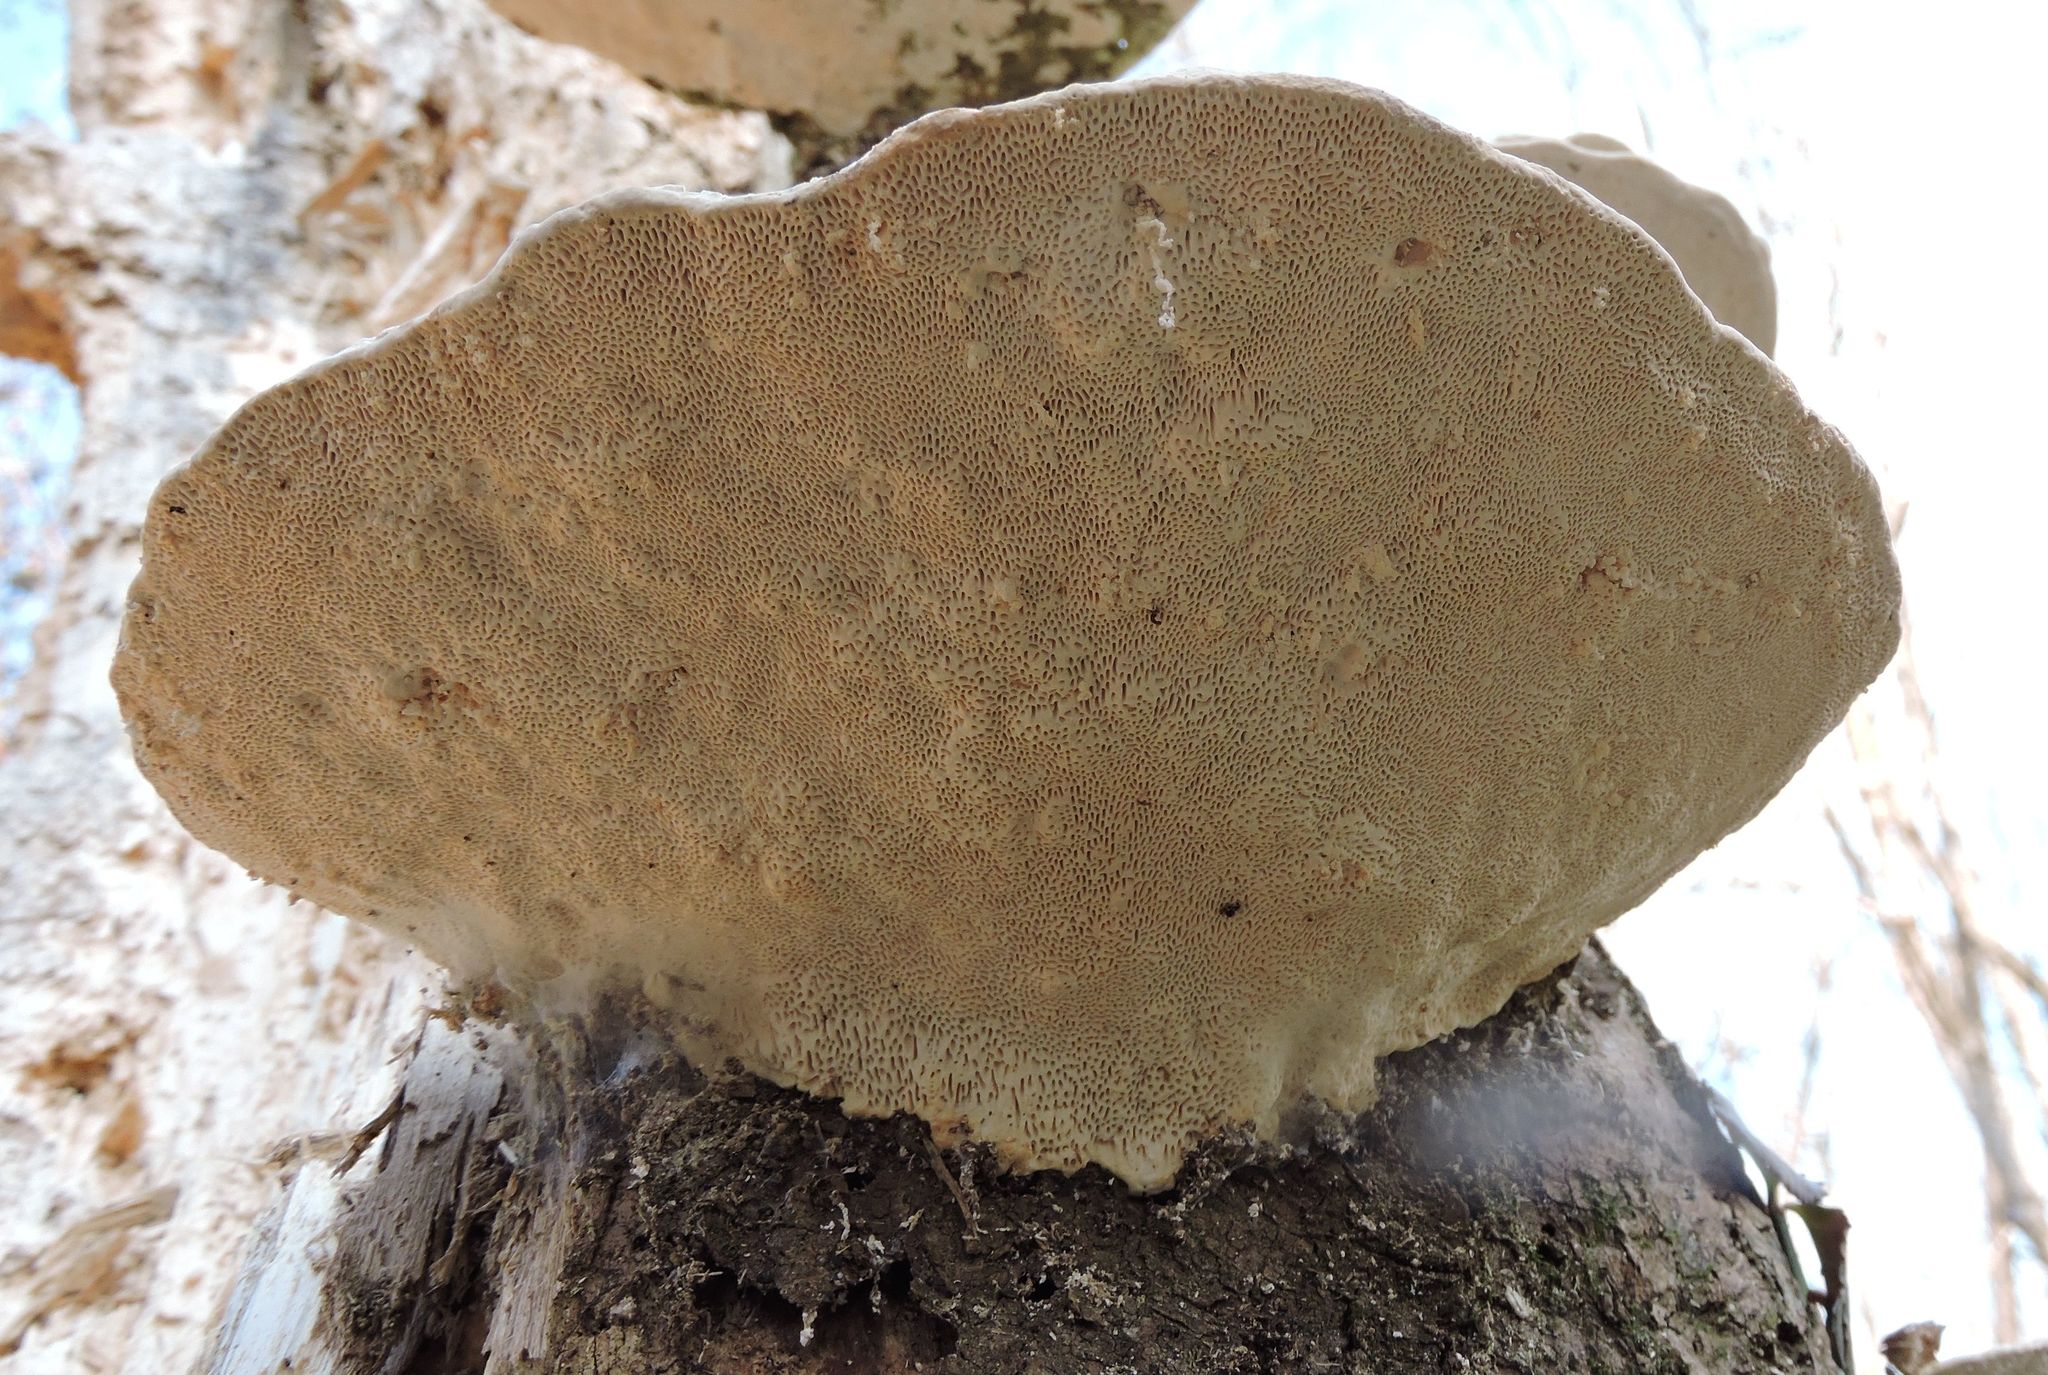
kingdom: Fungi
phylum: Basidiomycota
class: Agaricomycetes
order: Polyporales
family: Polyporaceae
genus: Trametes
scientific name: Trametes gibbosa
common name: Lumpy bracket
